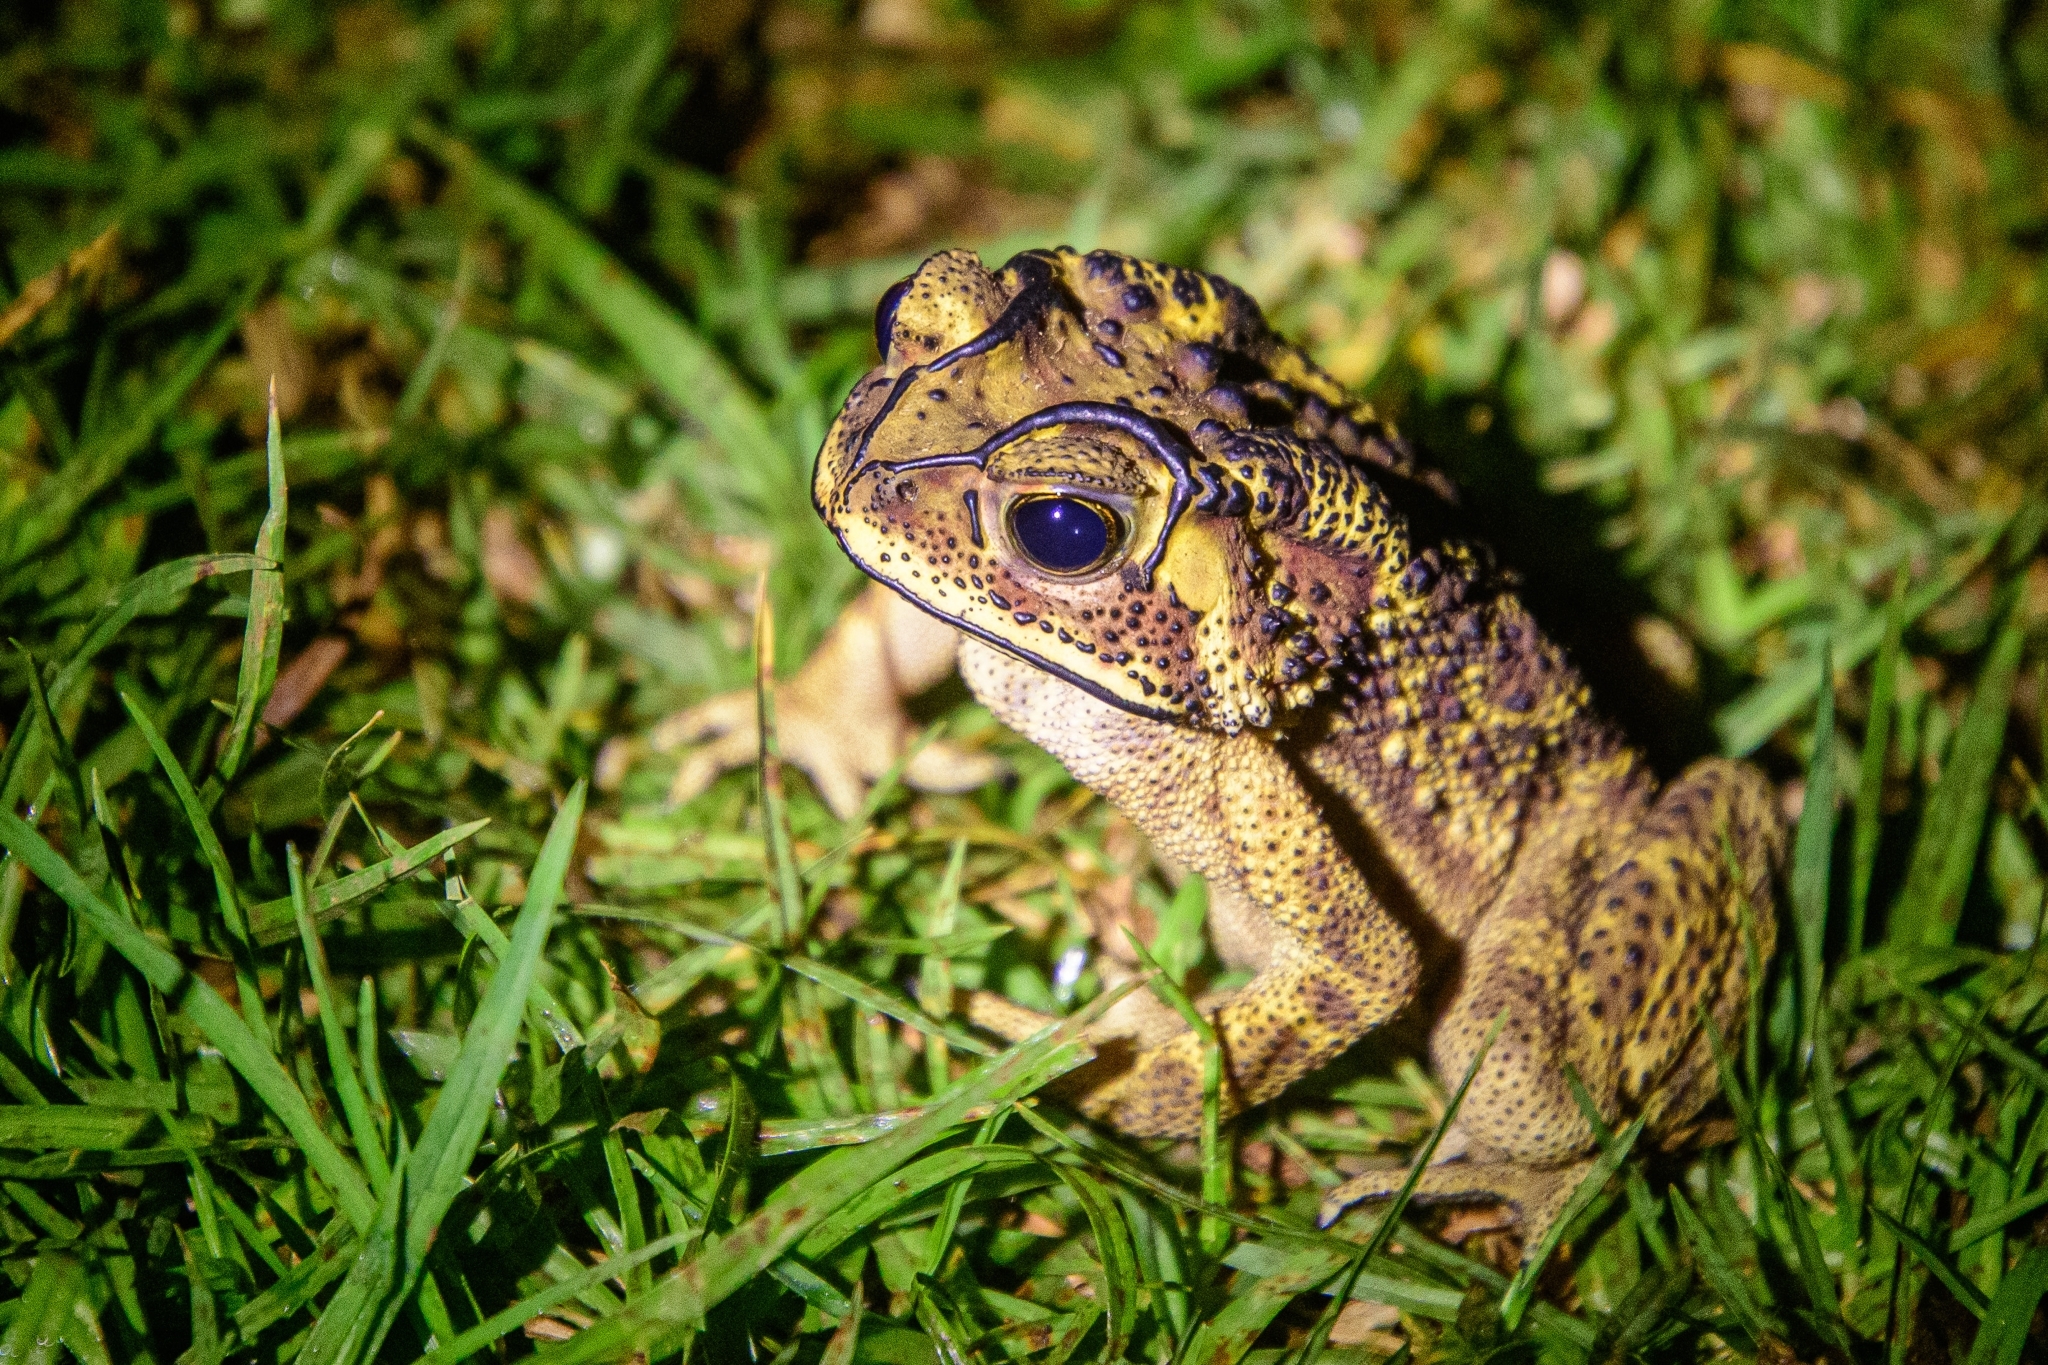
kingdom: Animalia
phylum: Chordata
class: Amphibia
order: Anura
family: Bufonidae
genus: Duttaphrynus
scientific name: Duttaphrynus melanostictus
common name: Common sunda toad
